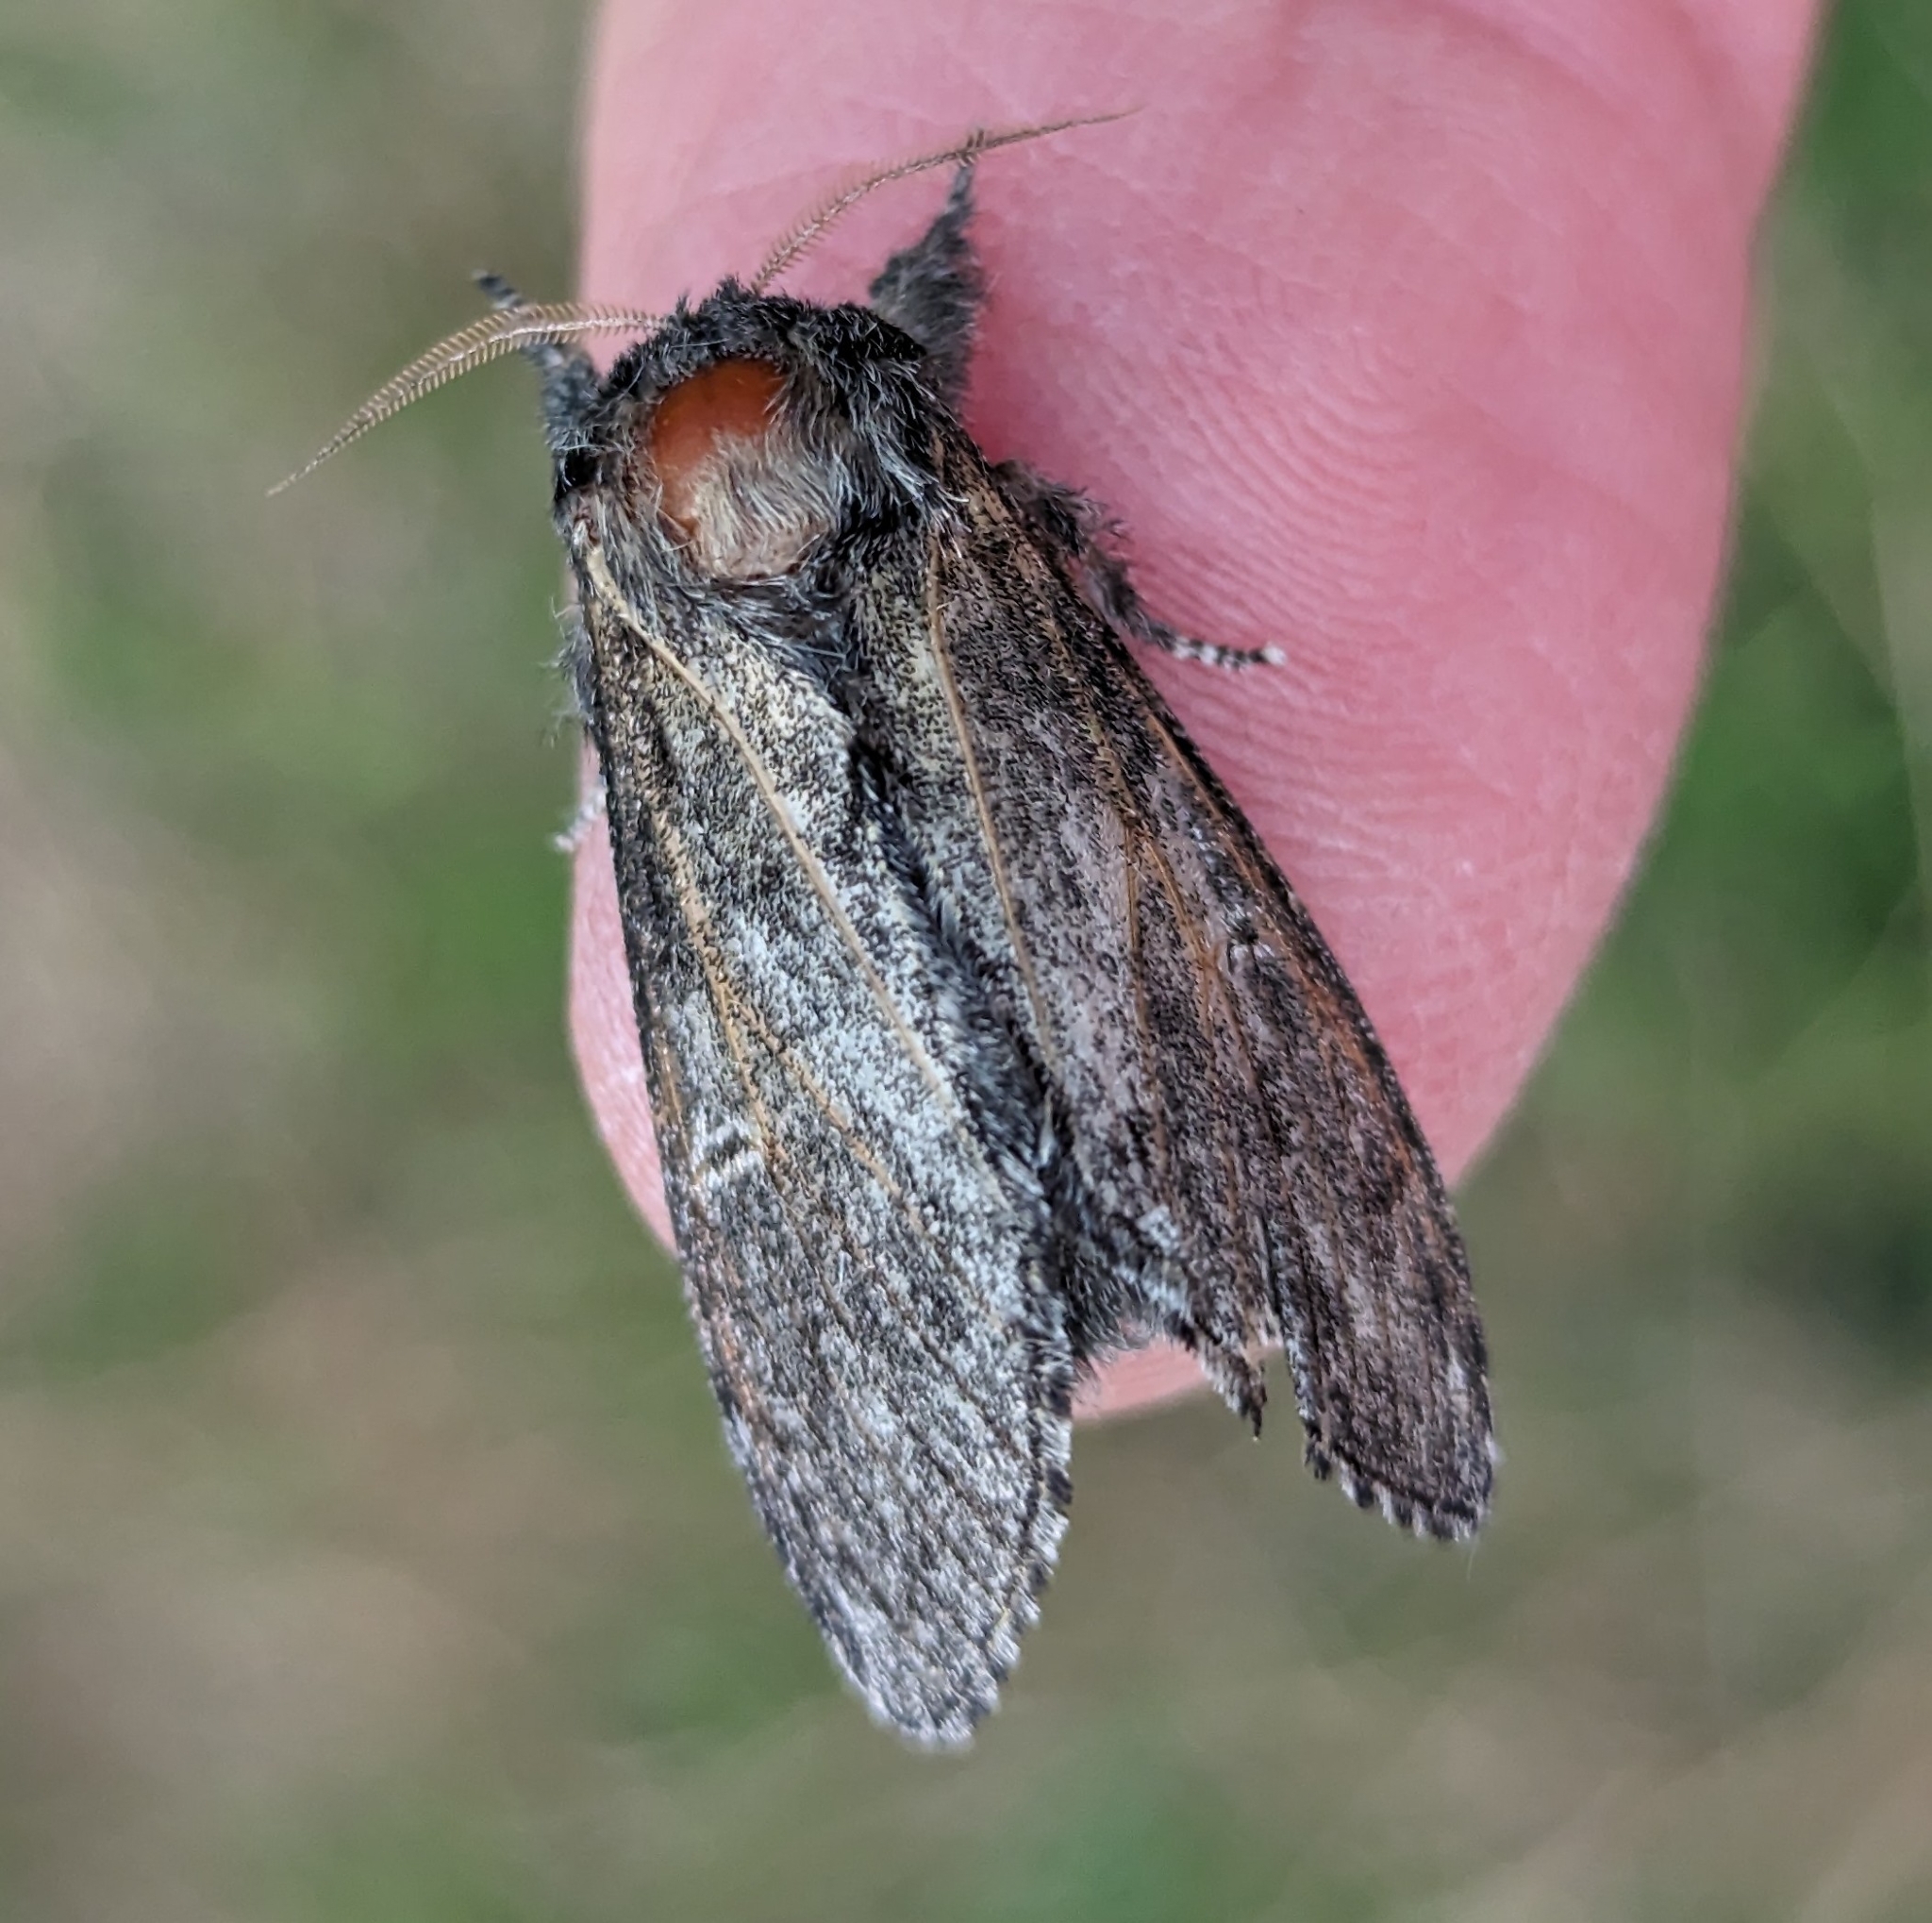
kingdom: Animalia
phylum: Arthropoda
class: Insecta
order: Lepidoptera
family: Notodontidae
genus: Notodonta
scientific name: Notodonta torva
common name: Large dark prominent
